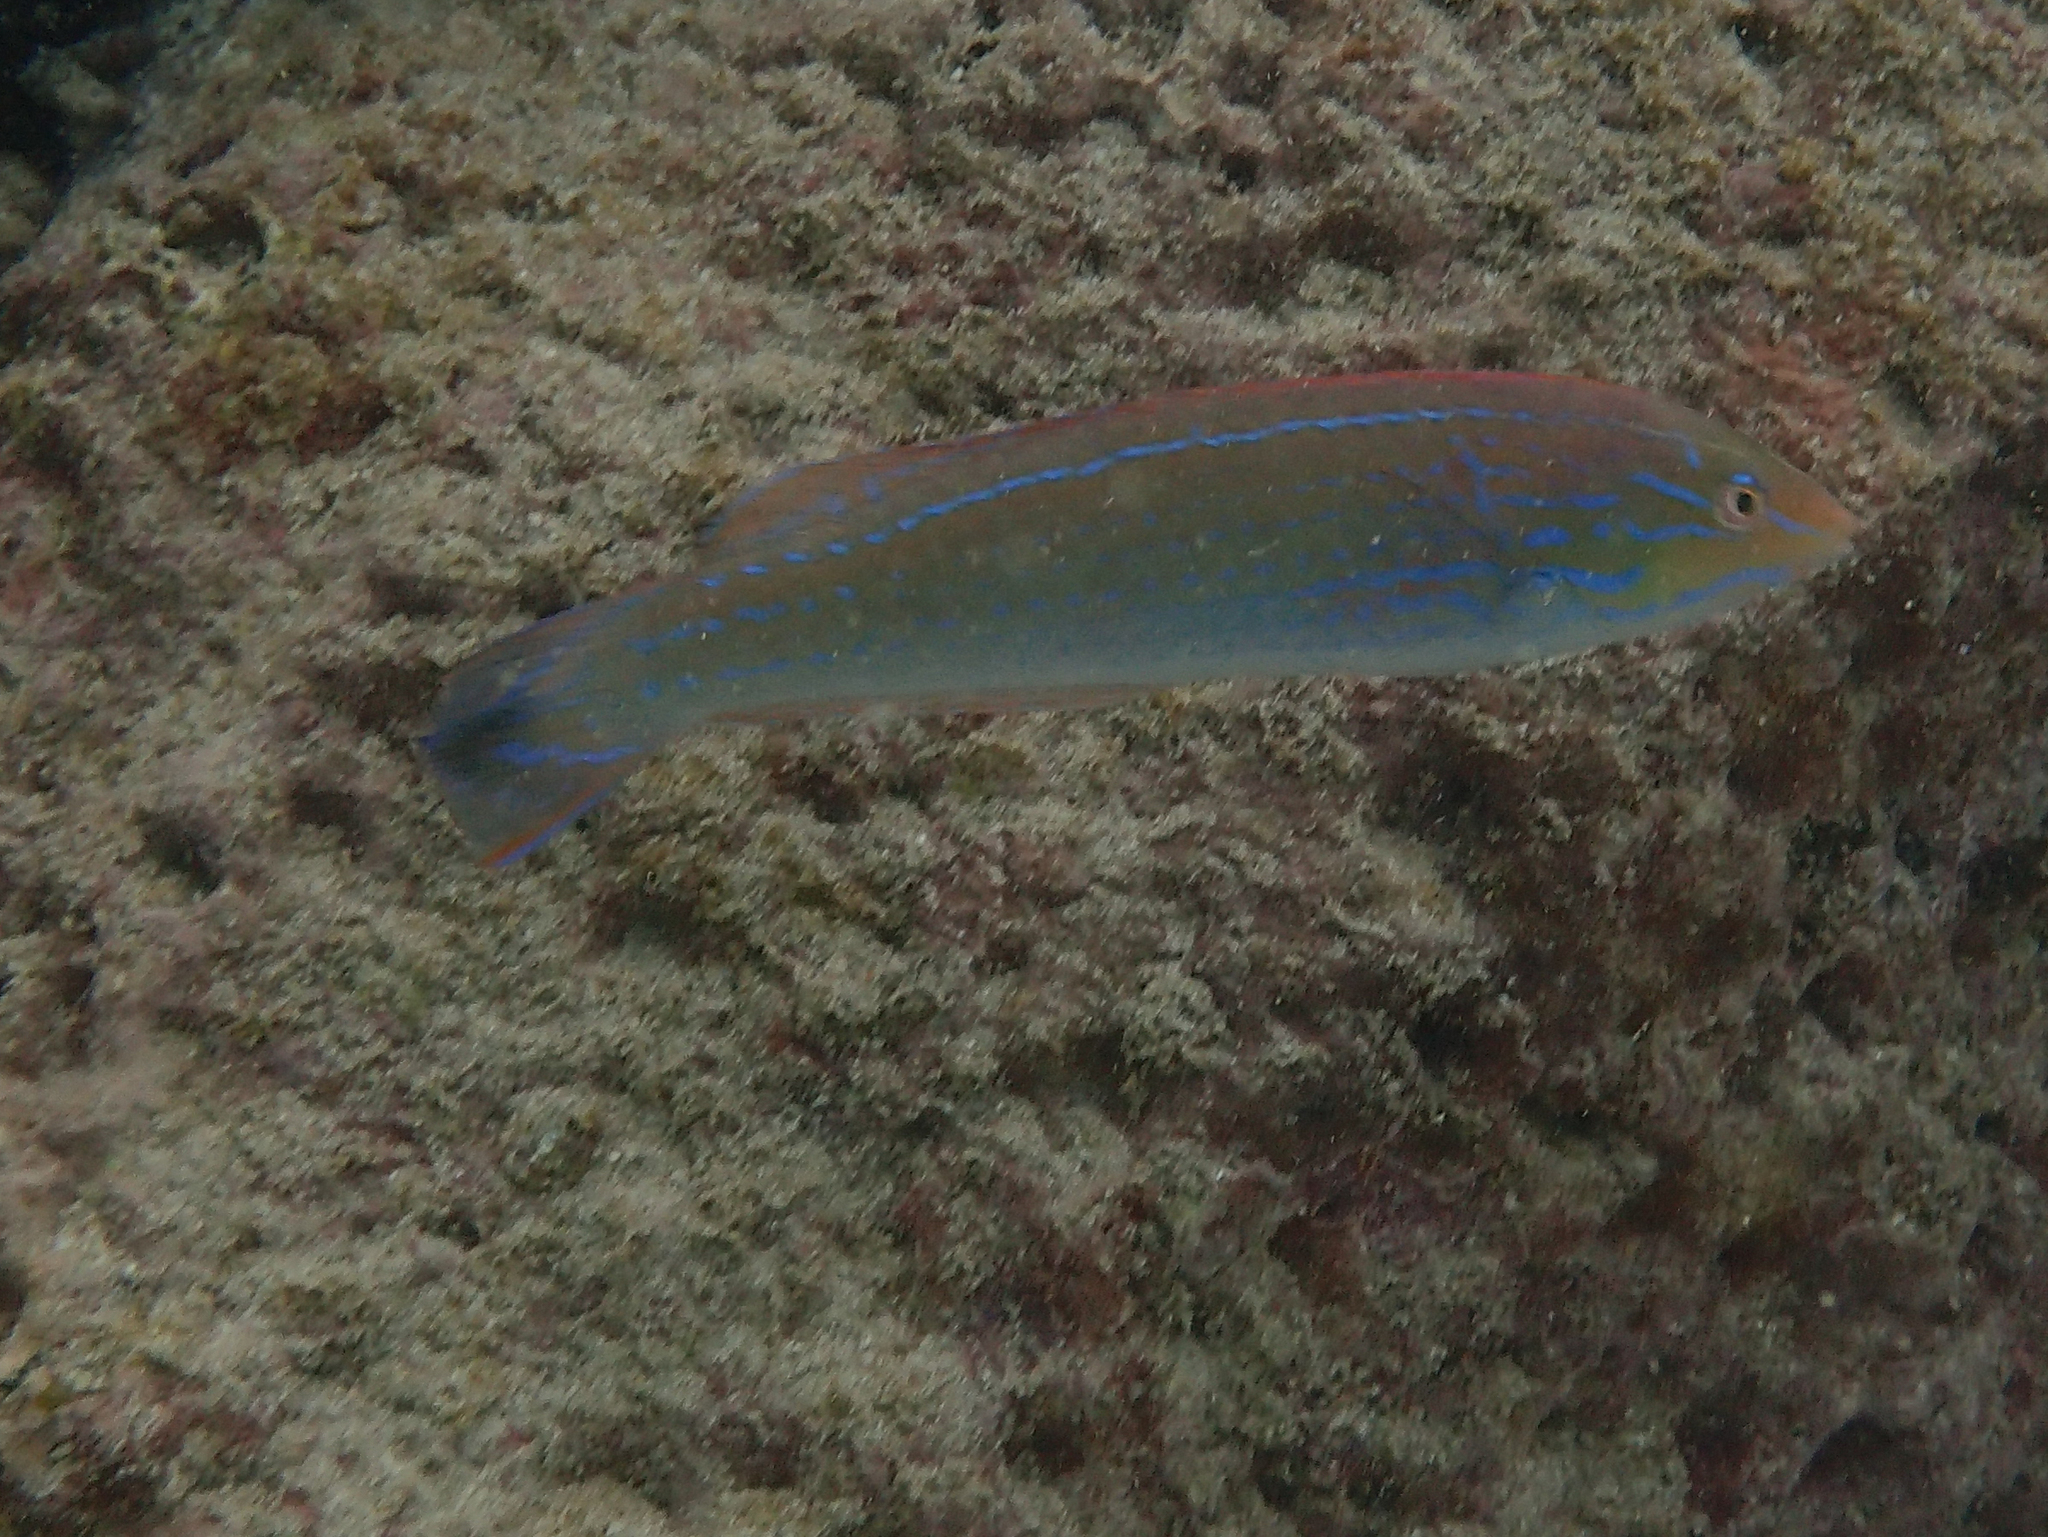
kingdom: Animalia
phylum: Chordata
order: Perciformes
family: Labridae
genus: Halichoeres
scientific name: Halichoeres dispilus
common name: Chameleon wrasse
